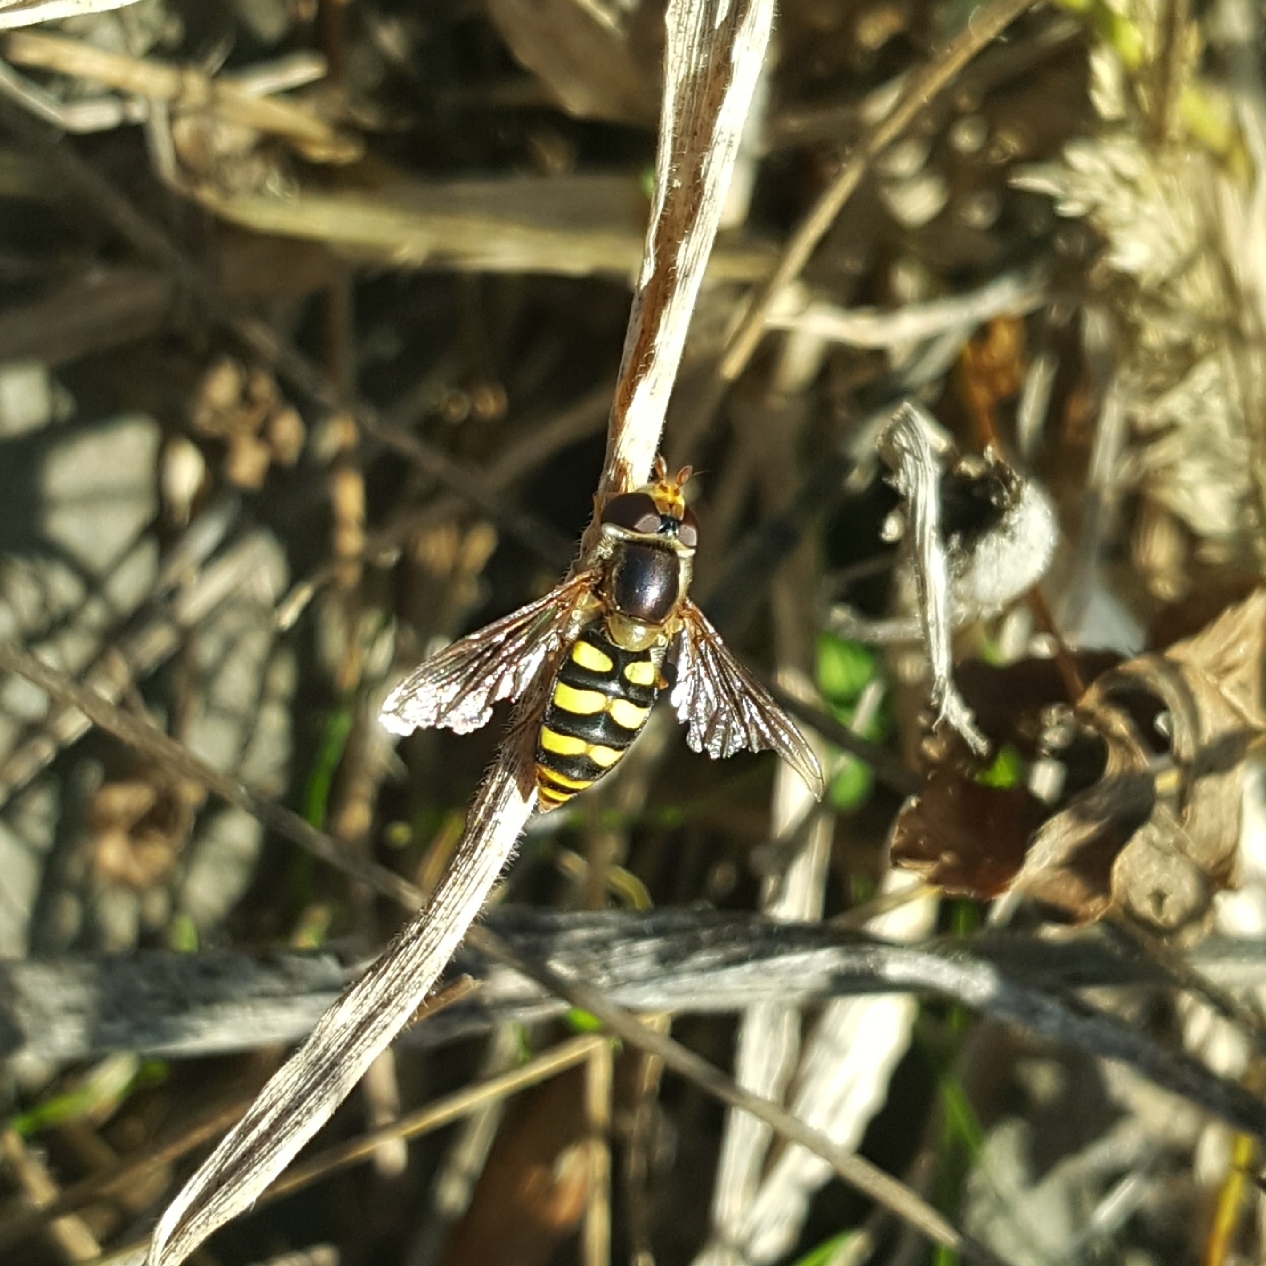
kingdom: Animalia
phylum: Arthropoda
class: Insecta
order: Diptera
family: Syrphidae
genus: Eupeodes
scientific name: Eupeodes fumipennis
